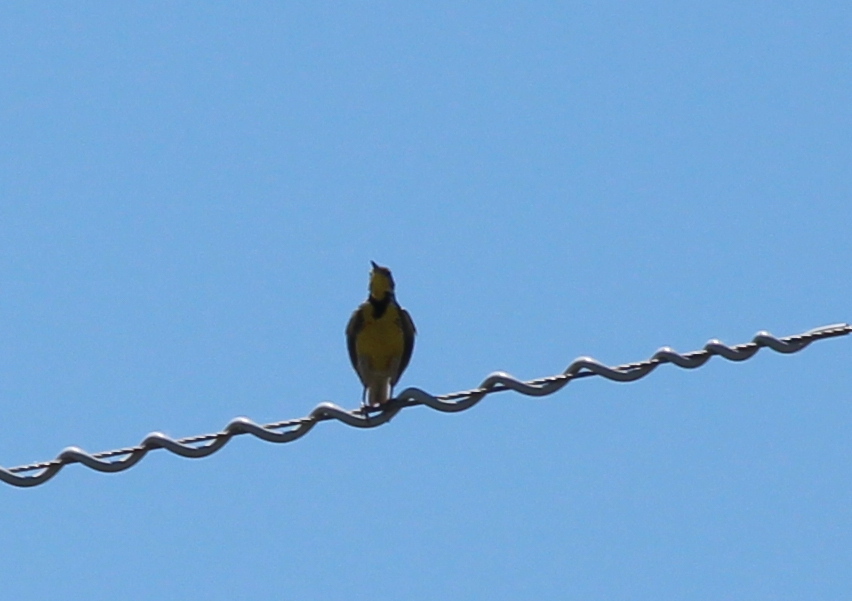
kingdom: Animalia
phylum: Chordata
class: Aves
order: Passeriformes
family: Icteridae
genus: Sturnella
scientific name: Sturnella neglecta
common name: Western meadowlark
